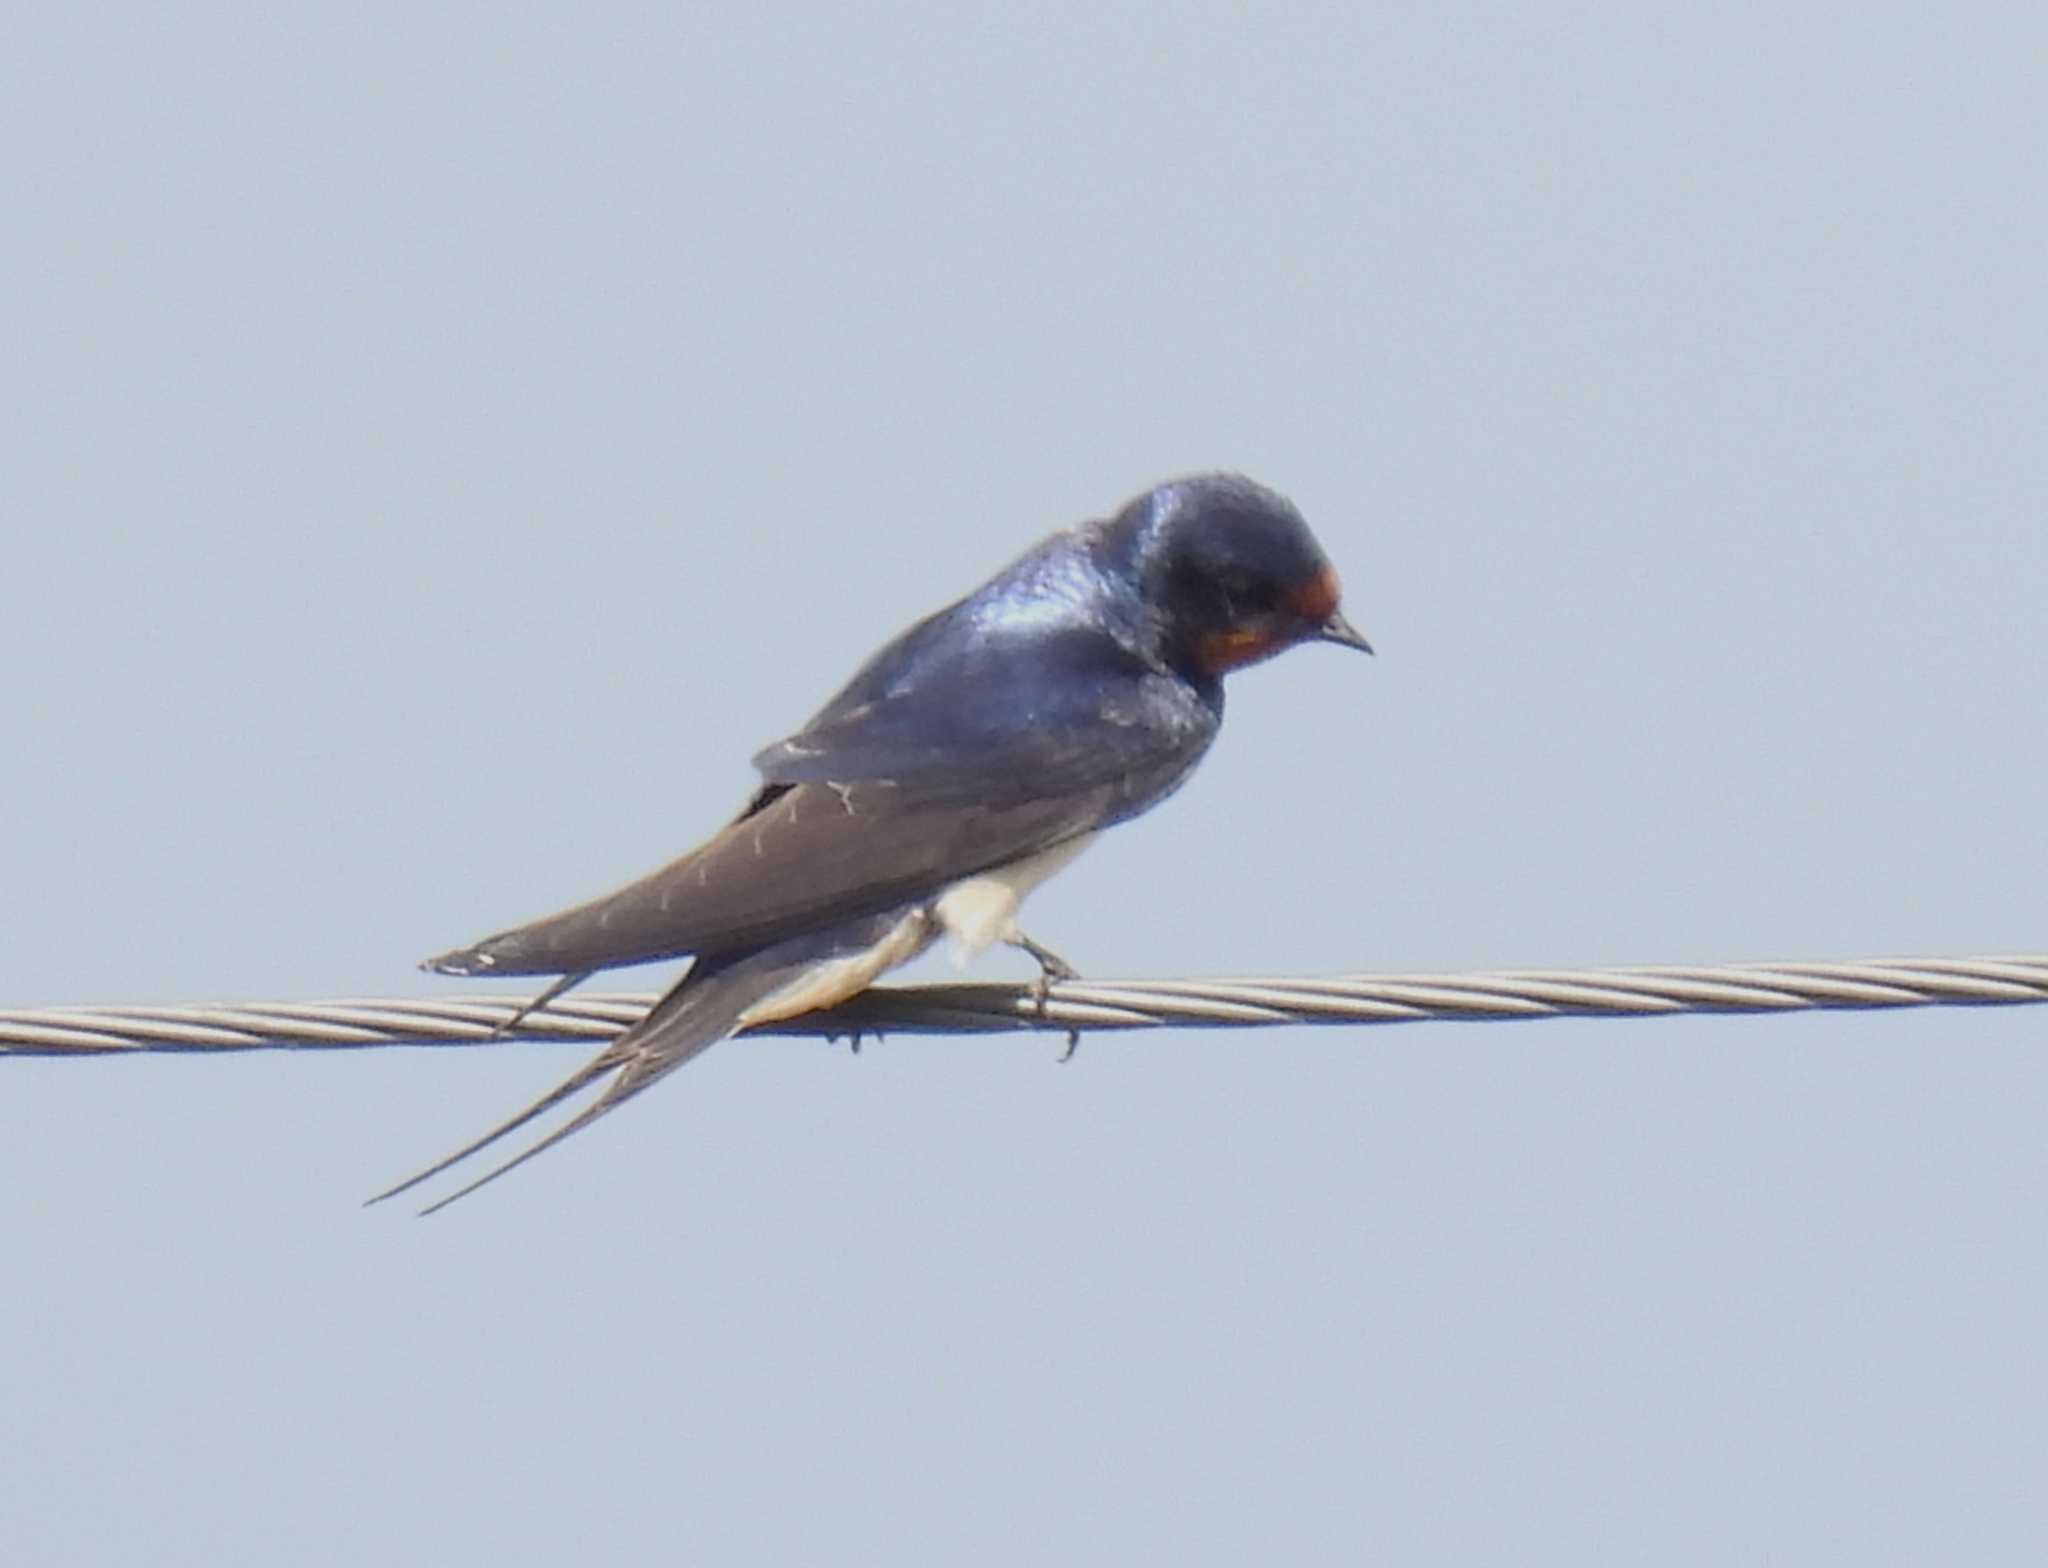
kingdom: Animalia
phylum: Chordata
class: Aves
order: Passeriformes
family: Hirundinidae
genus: Hirundo
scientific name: Hirundo rustica
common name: Barn swallow
